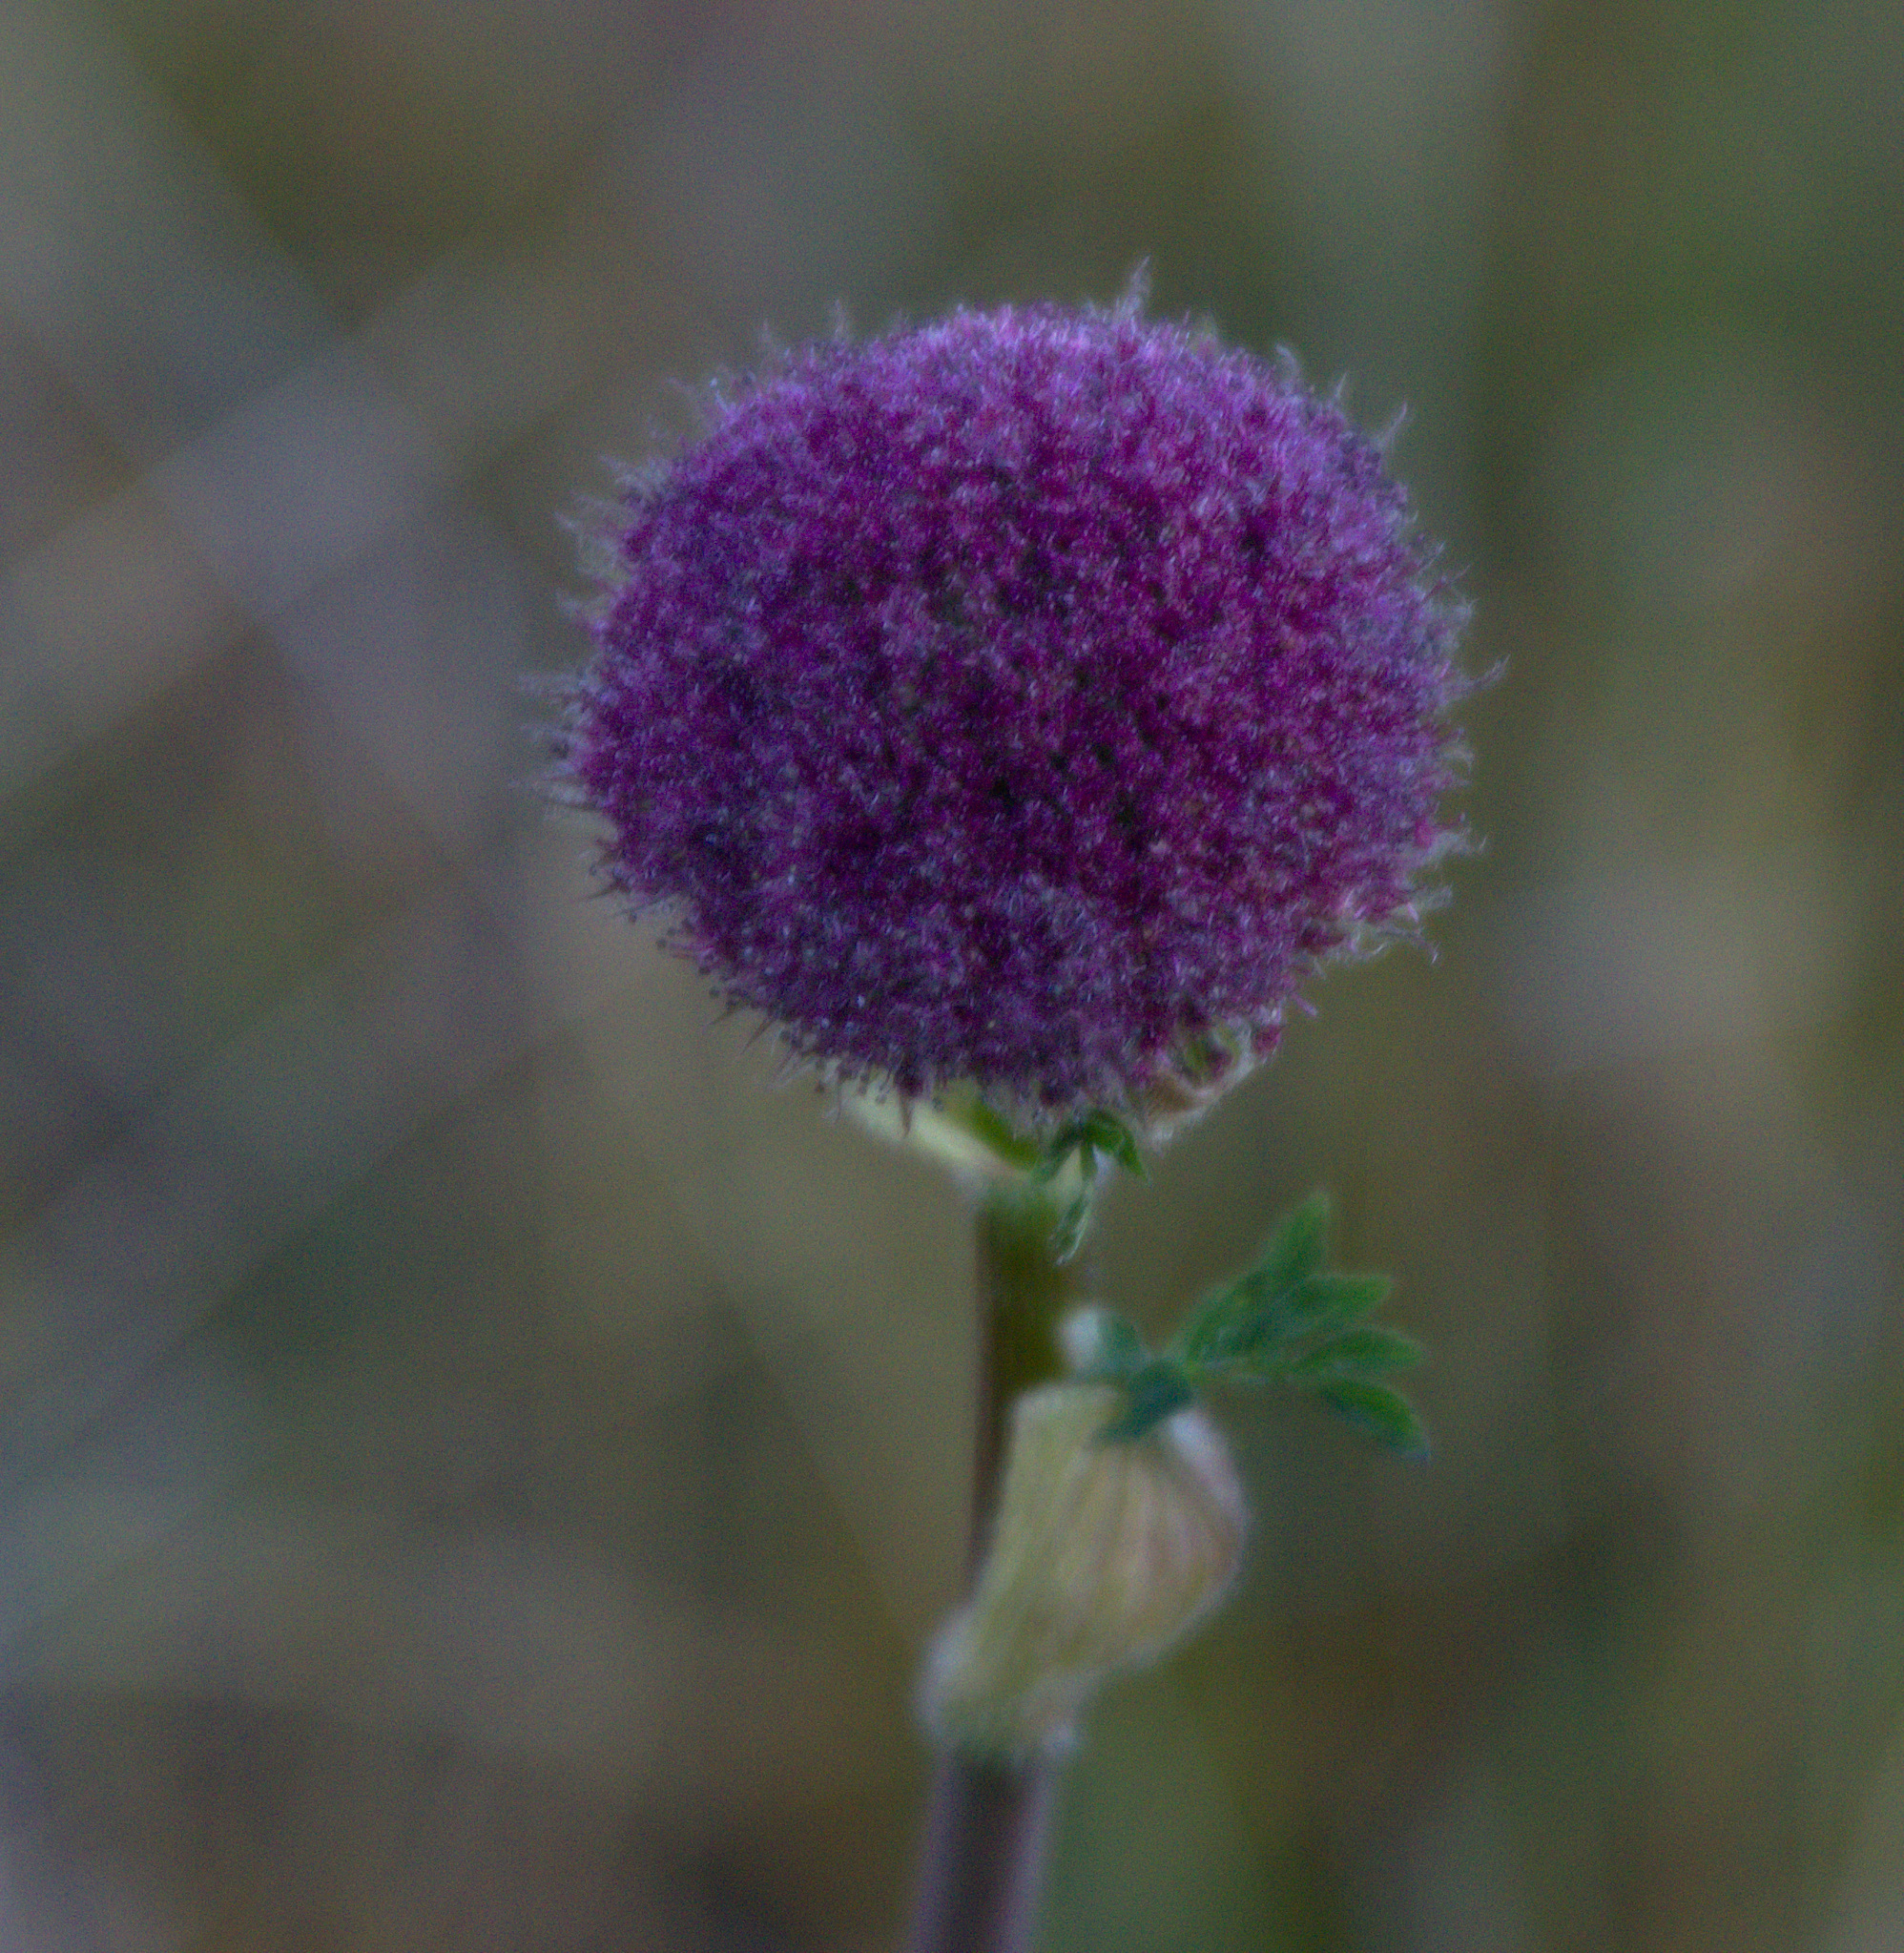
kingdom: Plantae
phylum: Tracheophyta
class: Magnoliopsida
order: Apiales
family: Apiaceae
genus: Sajanella
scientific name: Sajanella monstrosa
